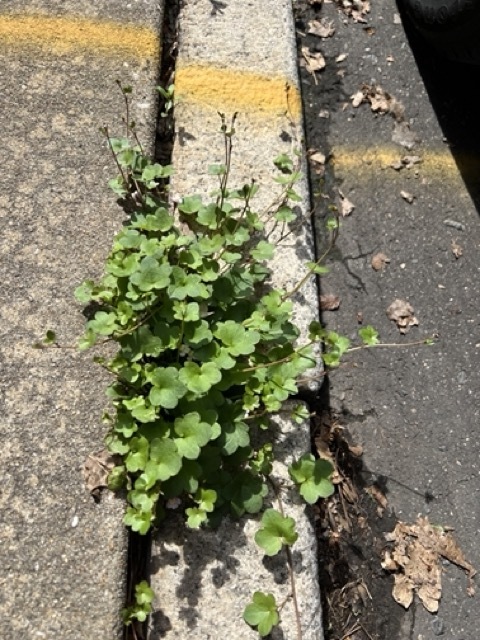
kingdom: Plantae
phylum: Tracheophyta
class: Magnoliopsida
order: Lamiales
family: Plantaginaceae
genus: Cymbalaria
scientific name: Cymbalaria muralis
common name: Ivy-leaved toadflax
